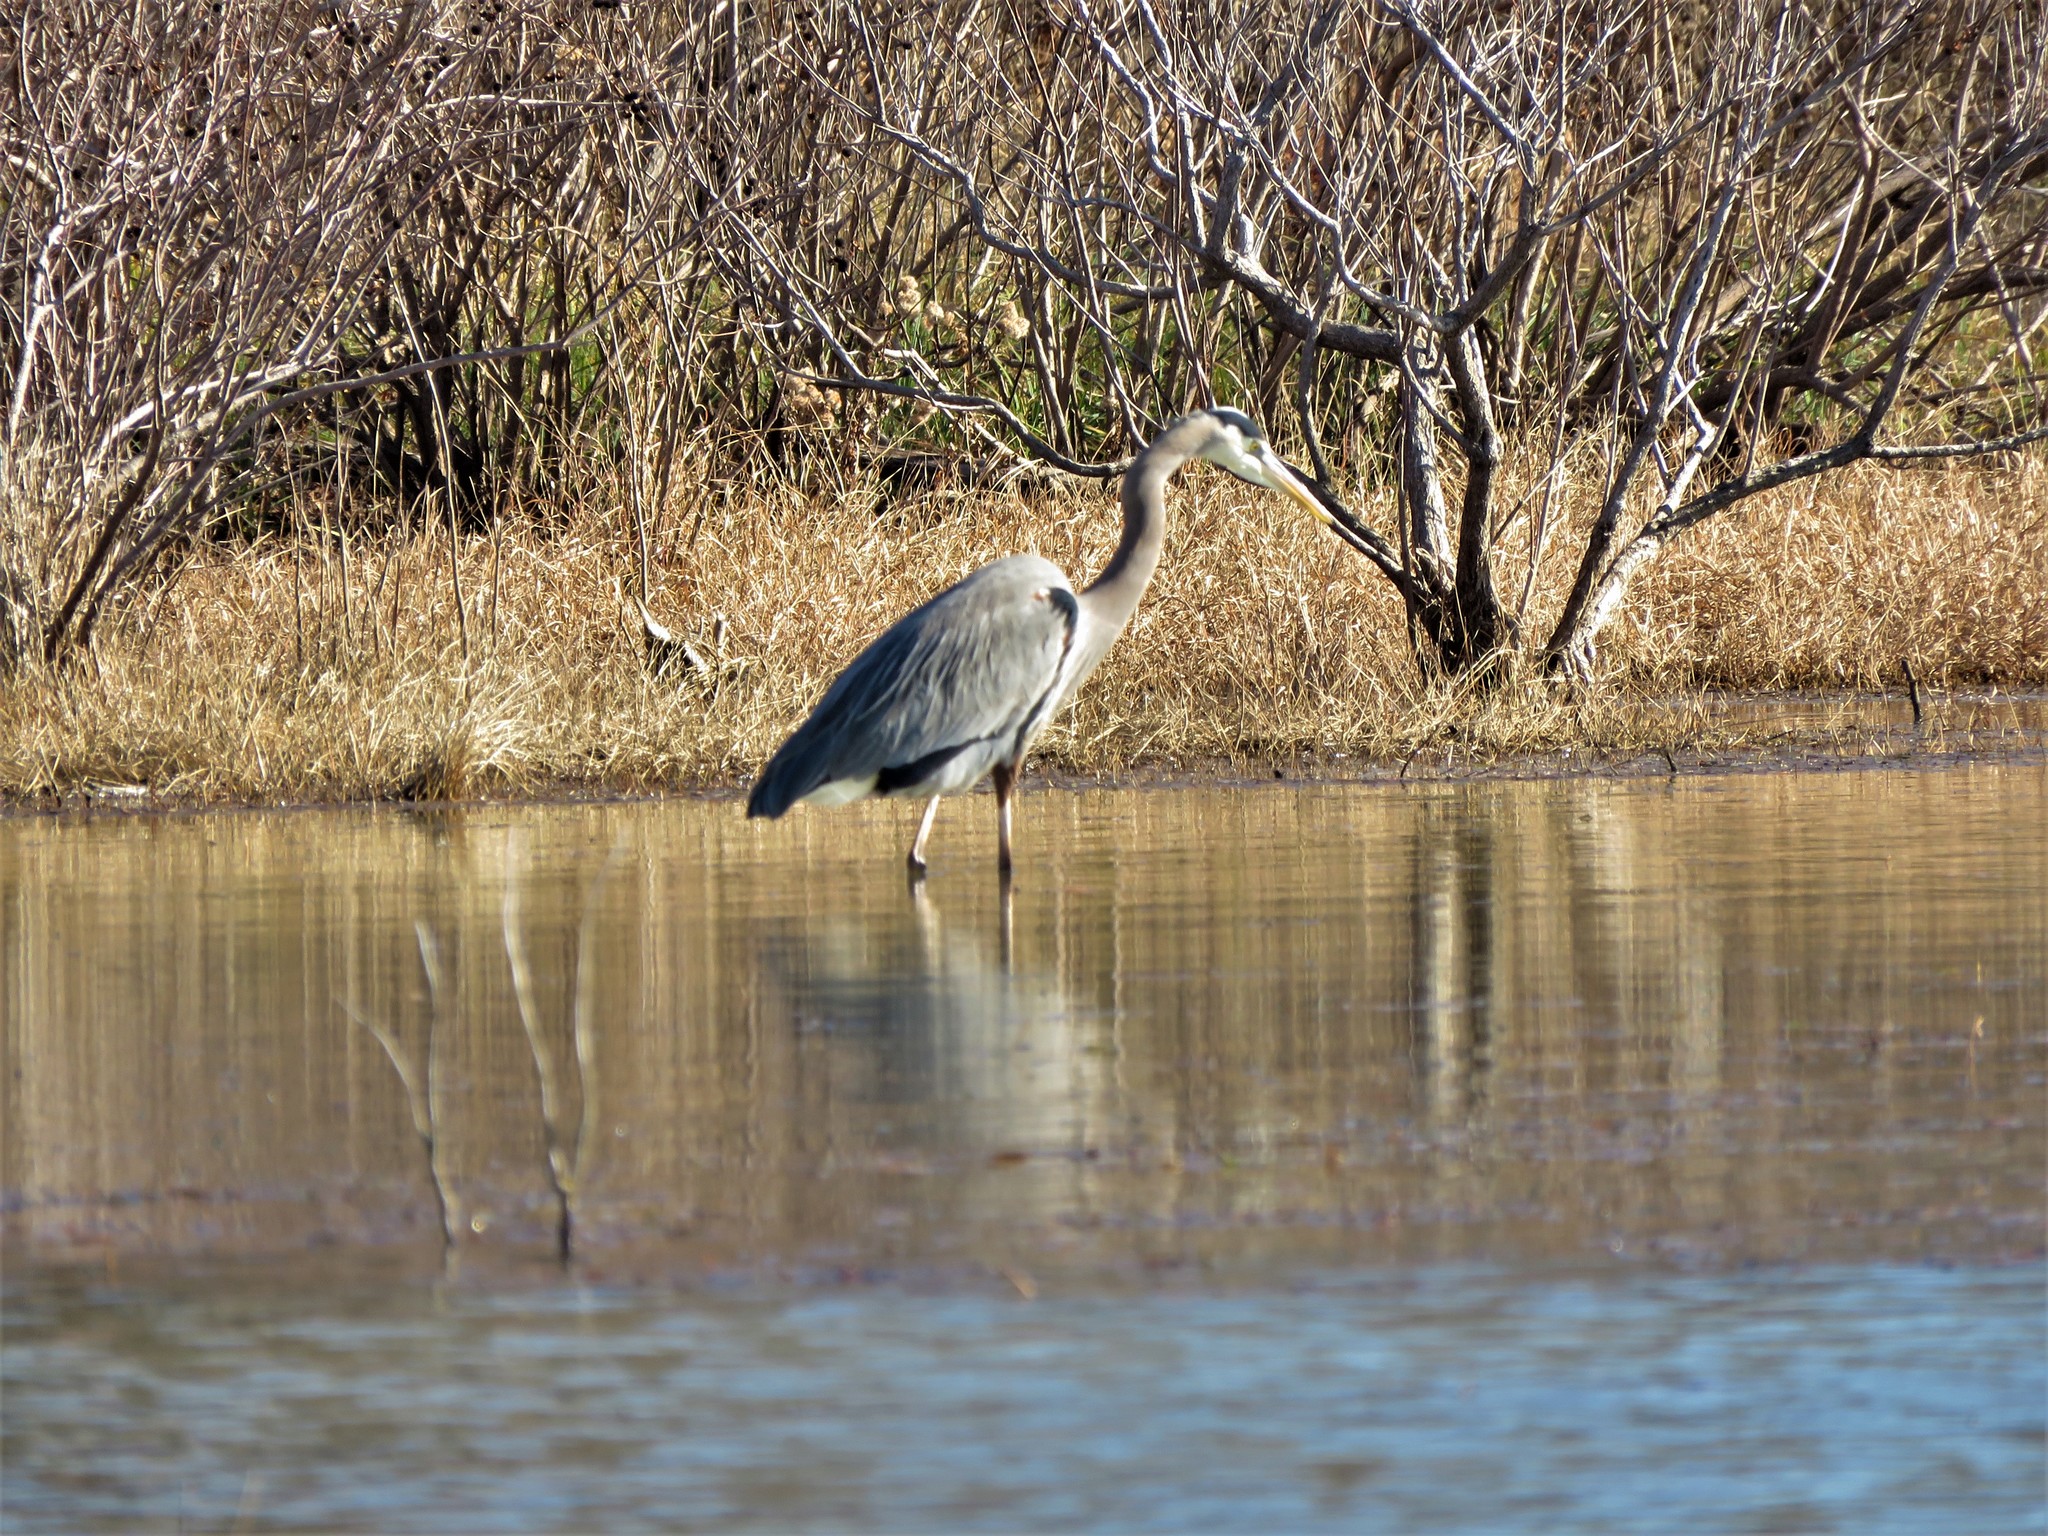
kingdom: Animalia
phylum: Chordata
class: Aves
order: Pelecaniformes
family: Ardeidae
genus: Ardea
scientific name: Ardea herodias
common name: Great blue heron
